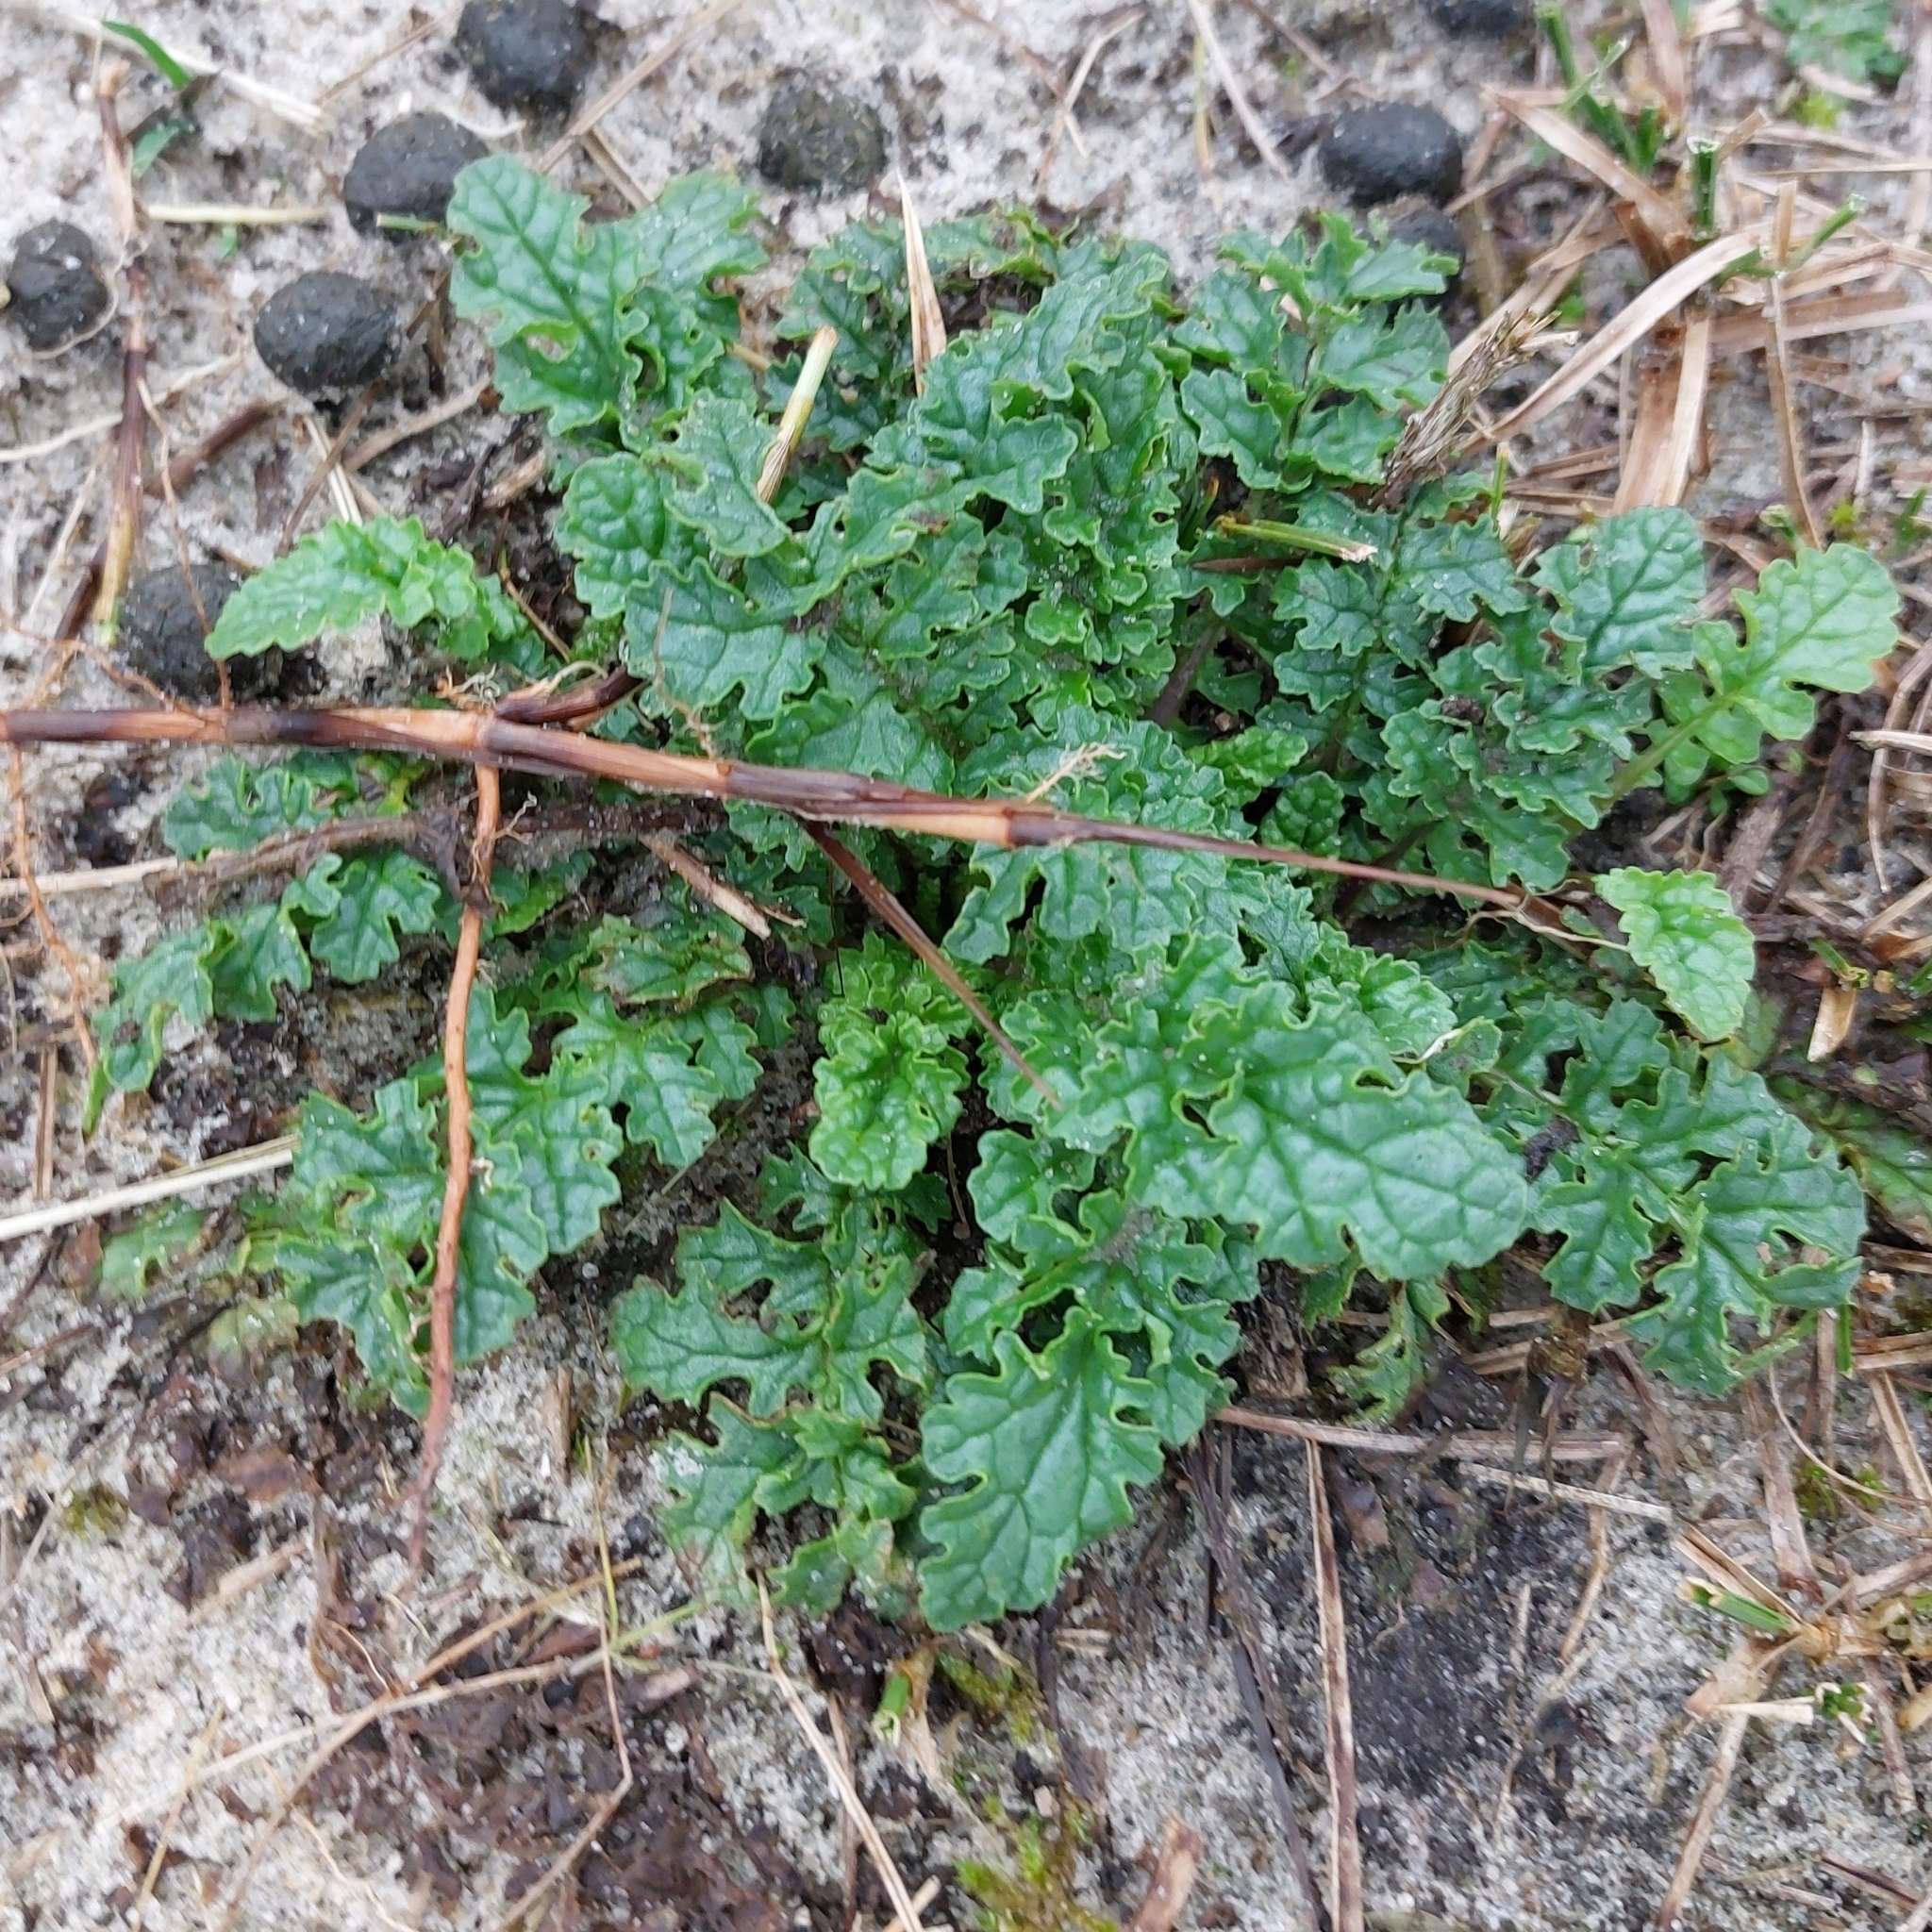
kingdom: Plantae
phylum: Tracheophyta
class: Magnoliopsida
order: Asterales
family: Asteraceae
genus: Jacobaea
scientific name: Jacobaea vulgaris
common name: Stinking willie
